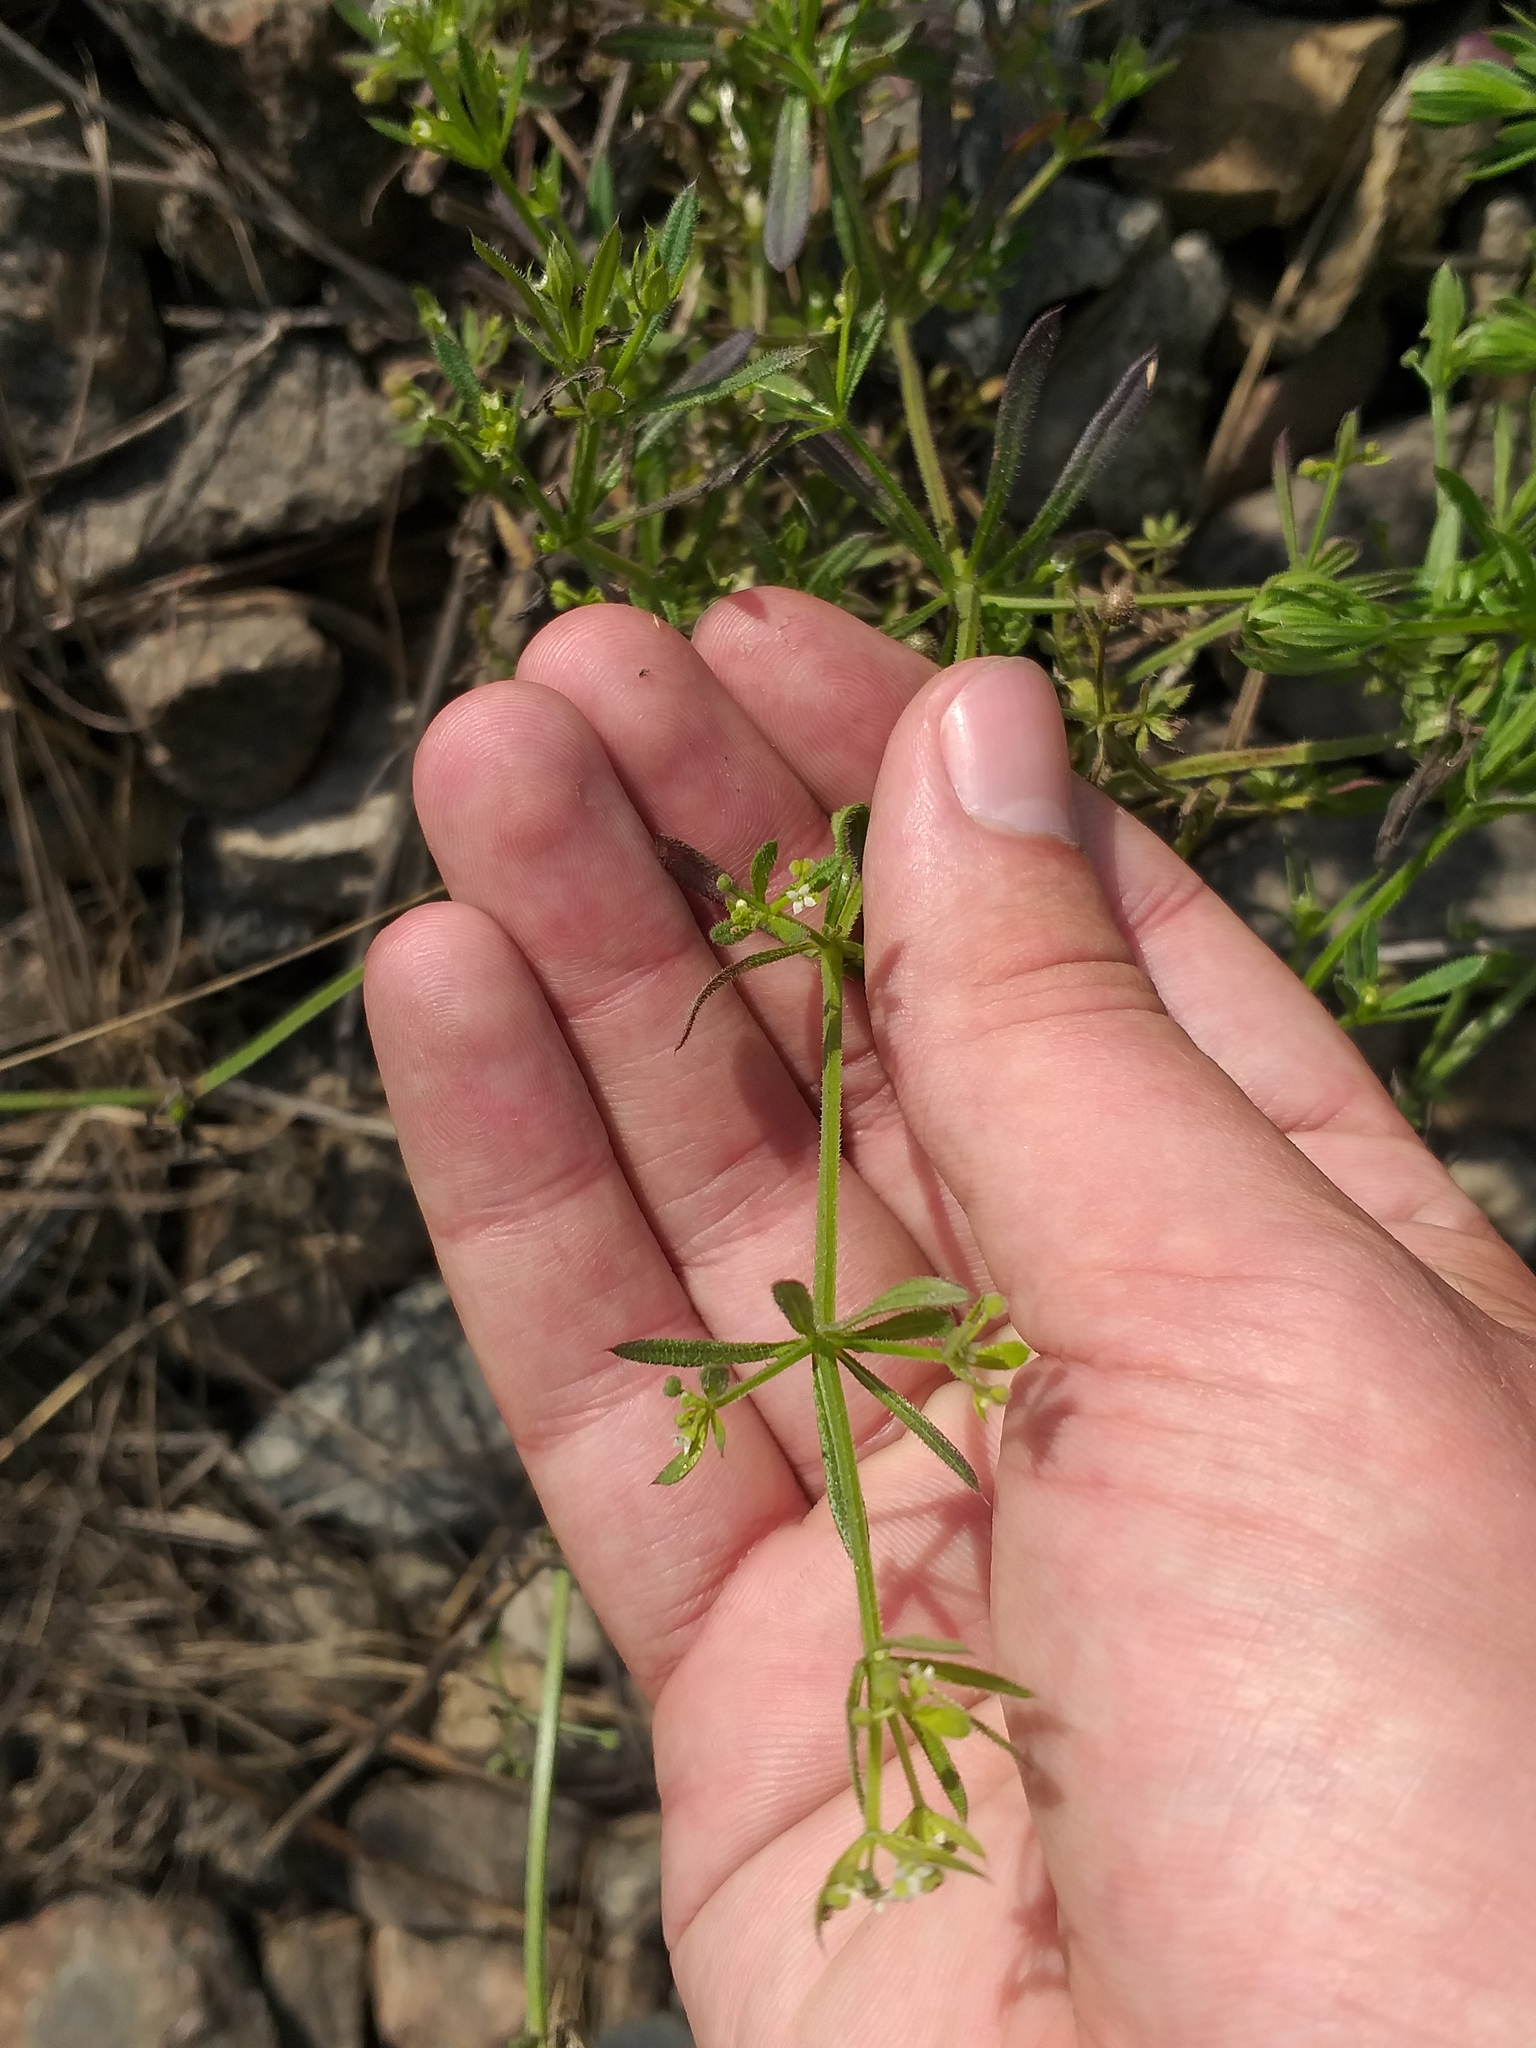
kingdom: Plantae
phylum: Tracheophyta
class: Magnoliopsida
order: Gentianales
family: Rubiaceae
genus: Galium
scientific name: Galium aparine
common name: Cleavers
